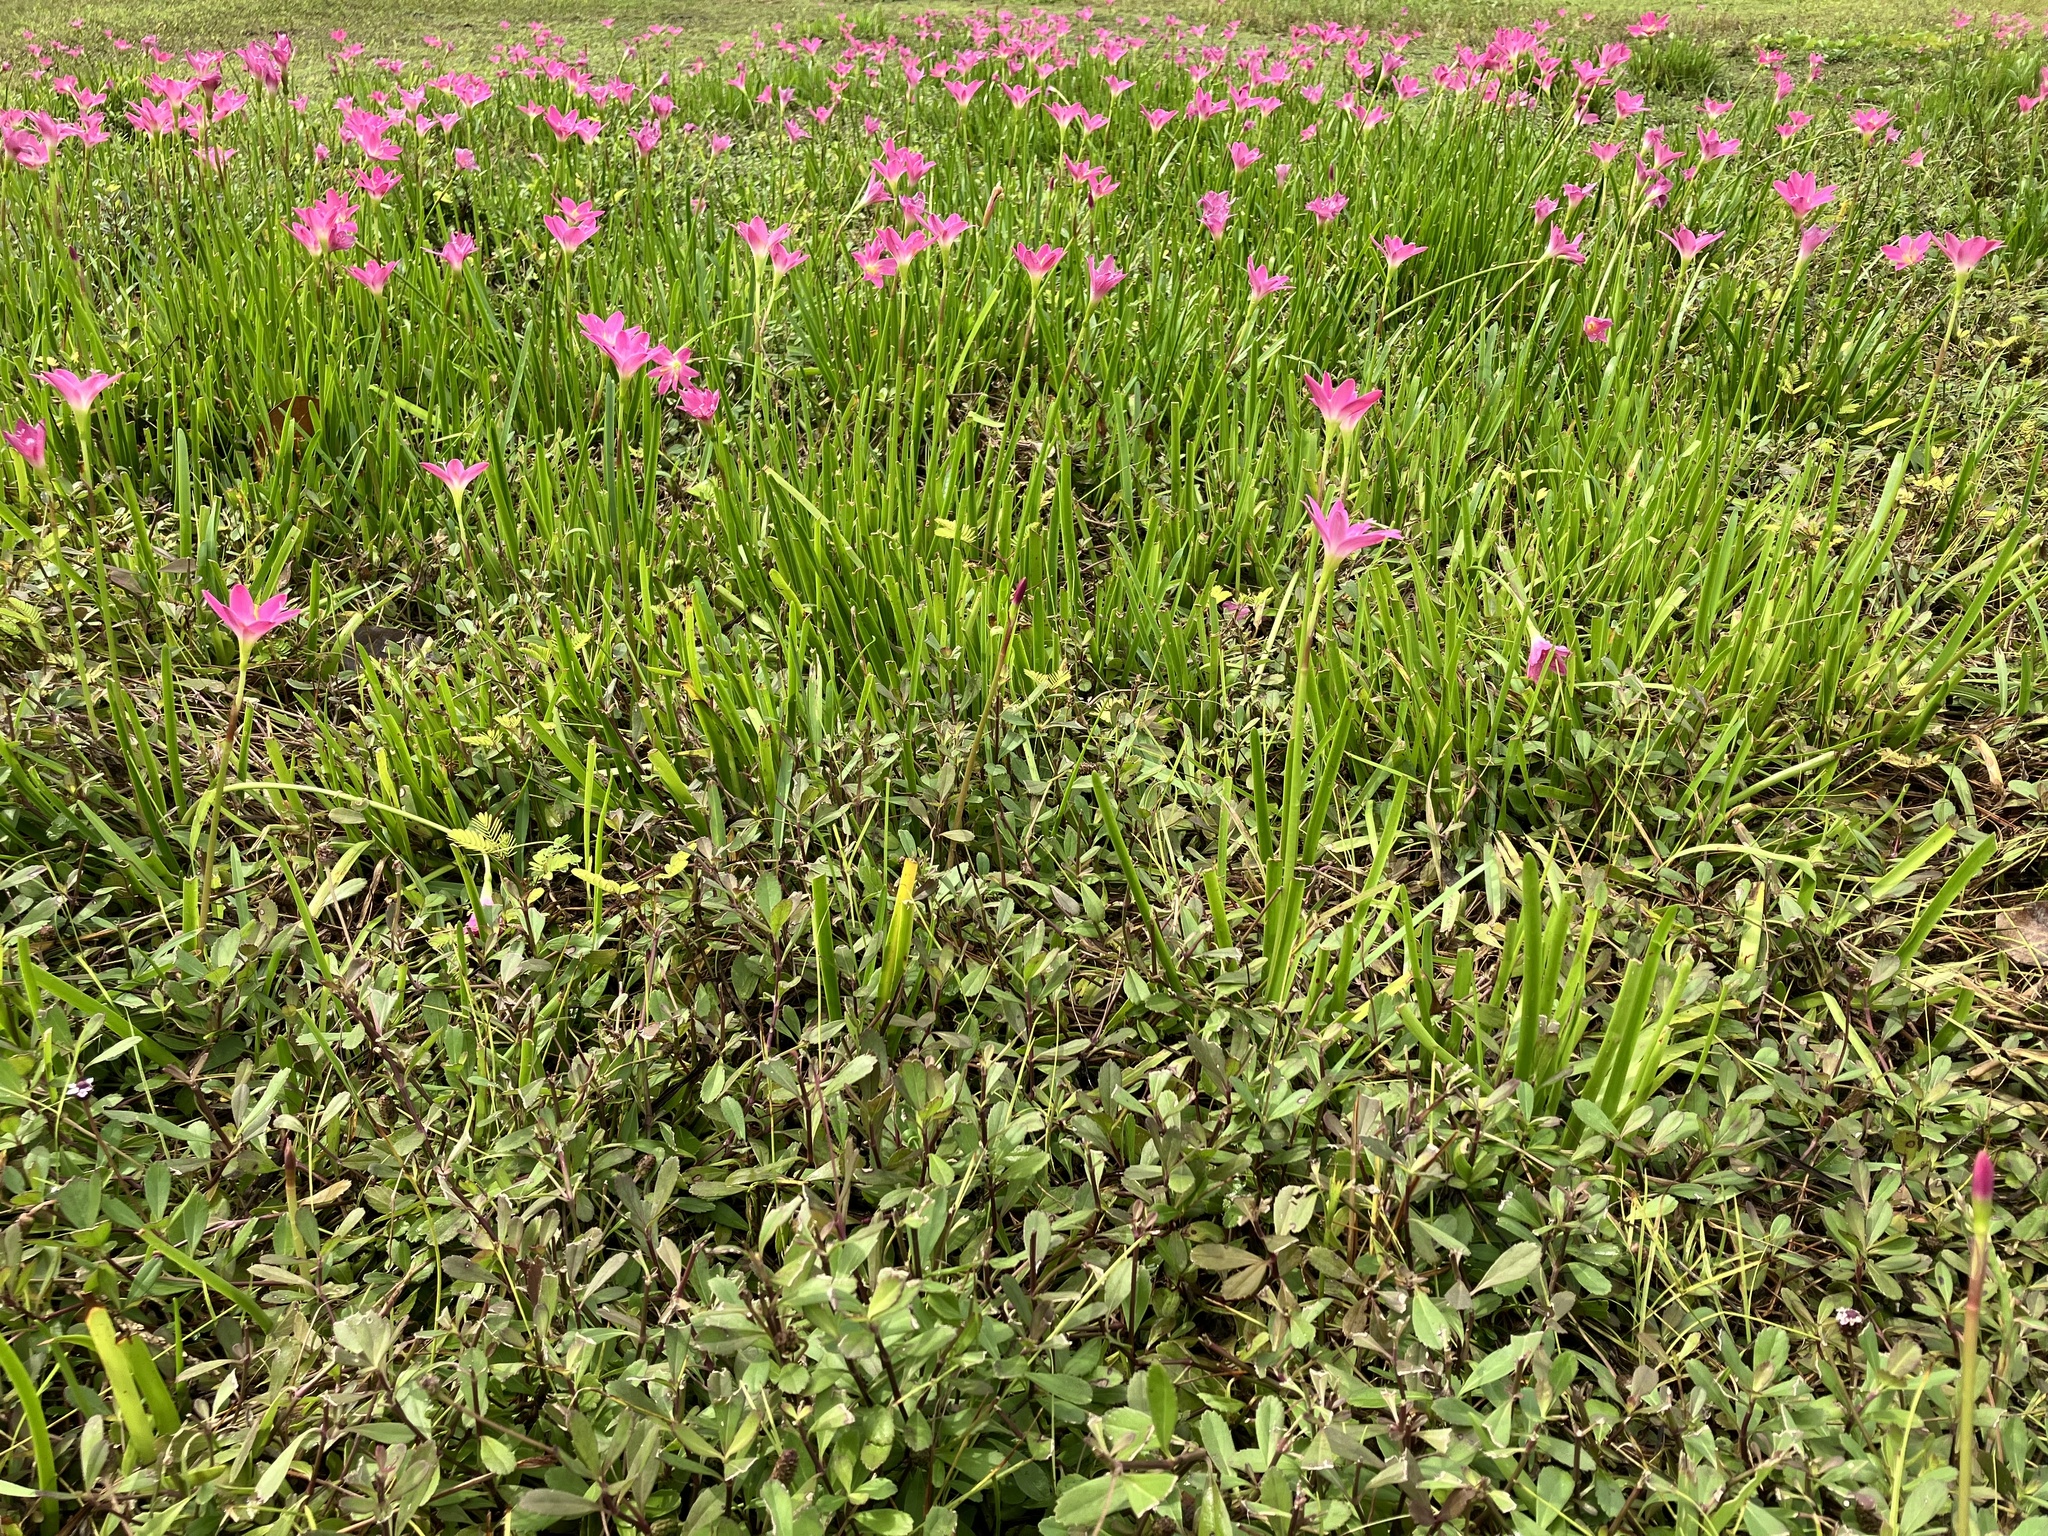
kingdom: Plantae
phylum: Tracheophyta
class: Liliopsida
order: Asparagales
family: Amaryllidaceae
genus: Zephyranthes
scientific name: Zephyranthes rosea
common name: Cuban zephyrlily
